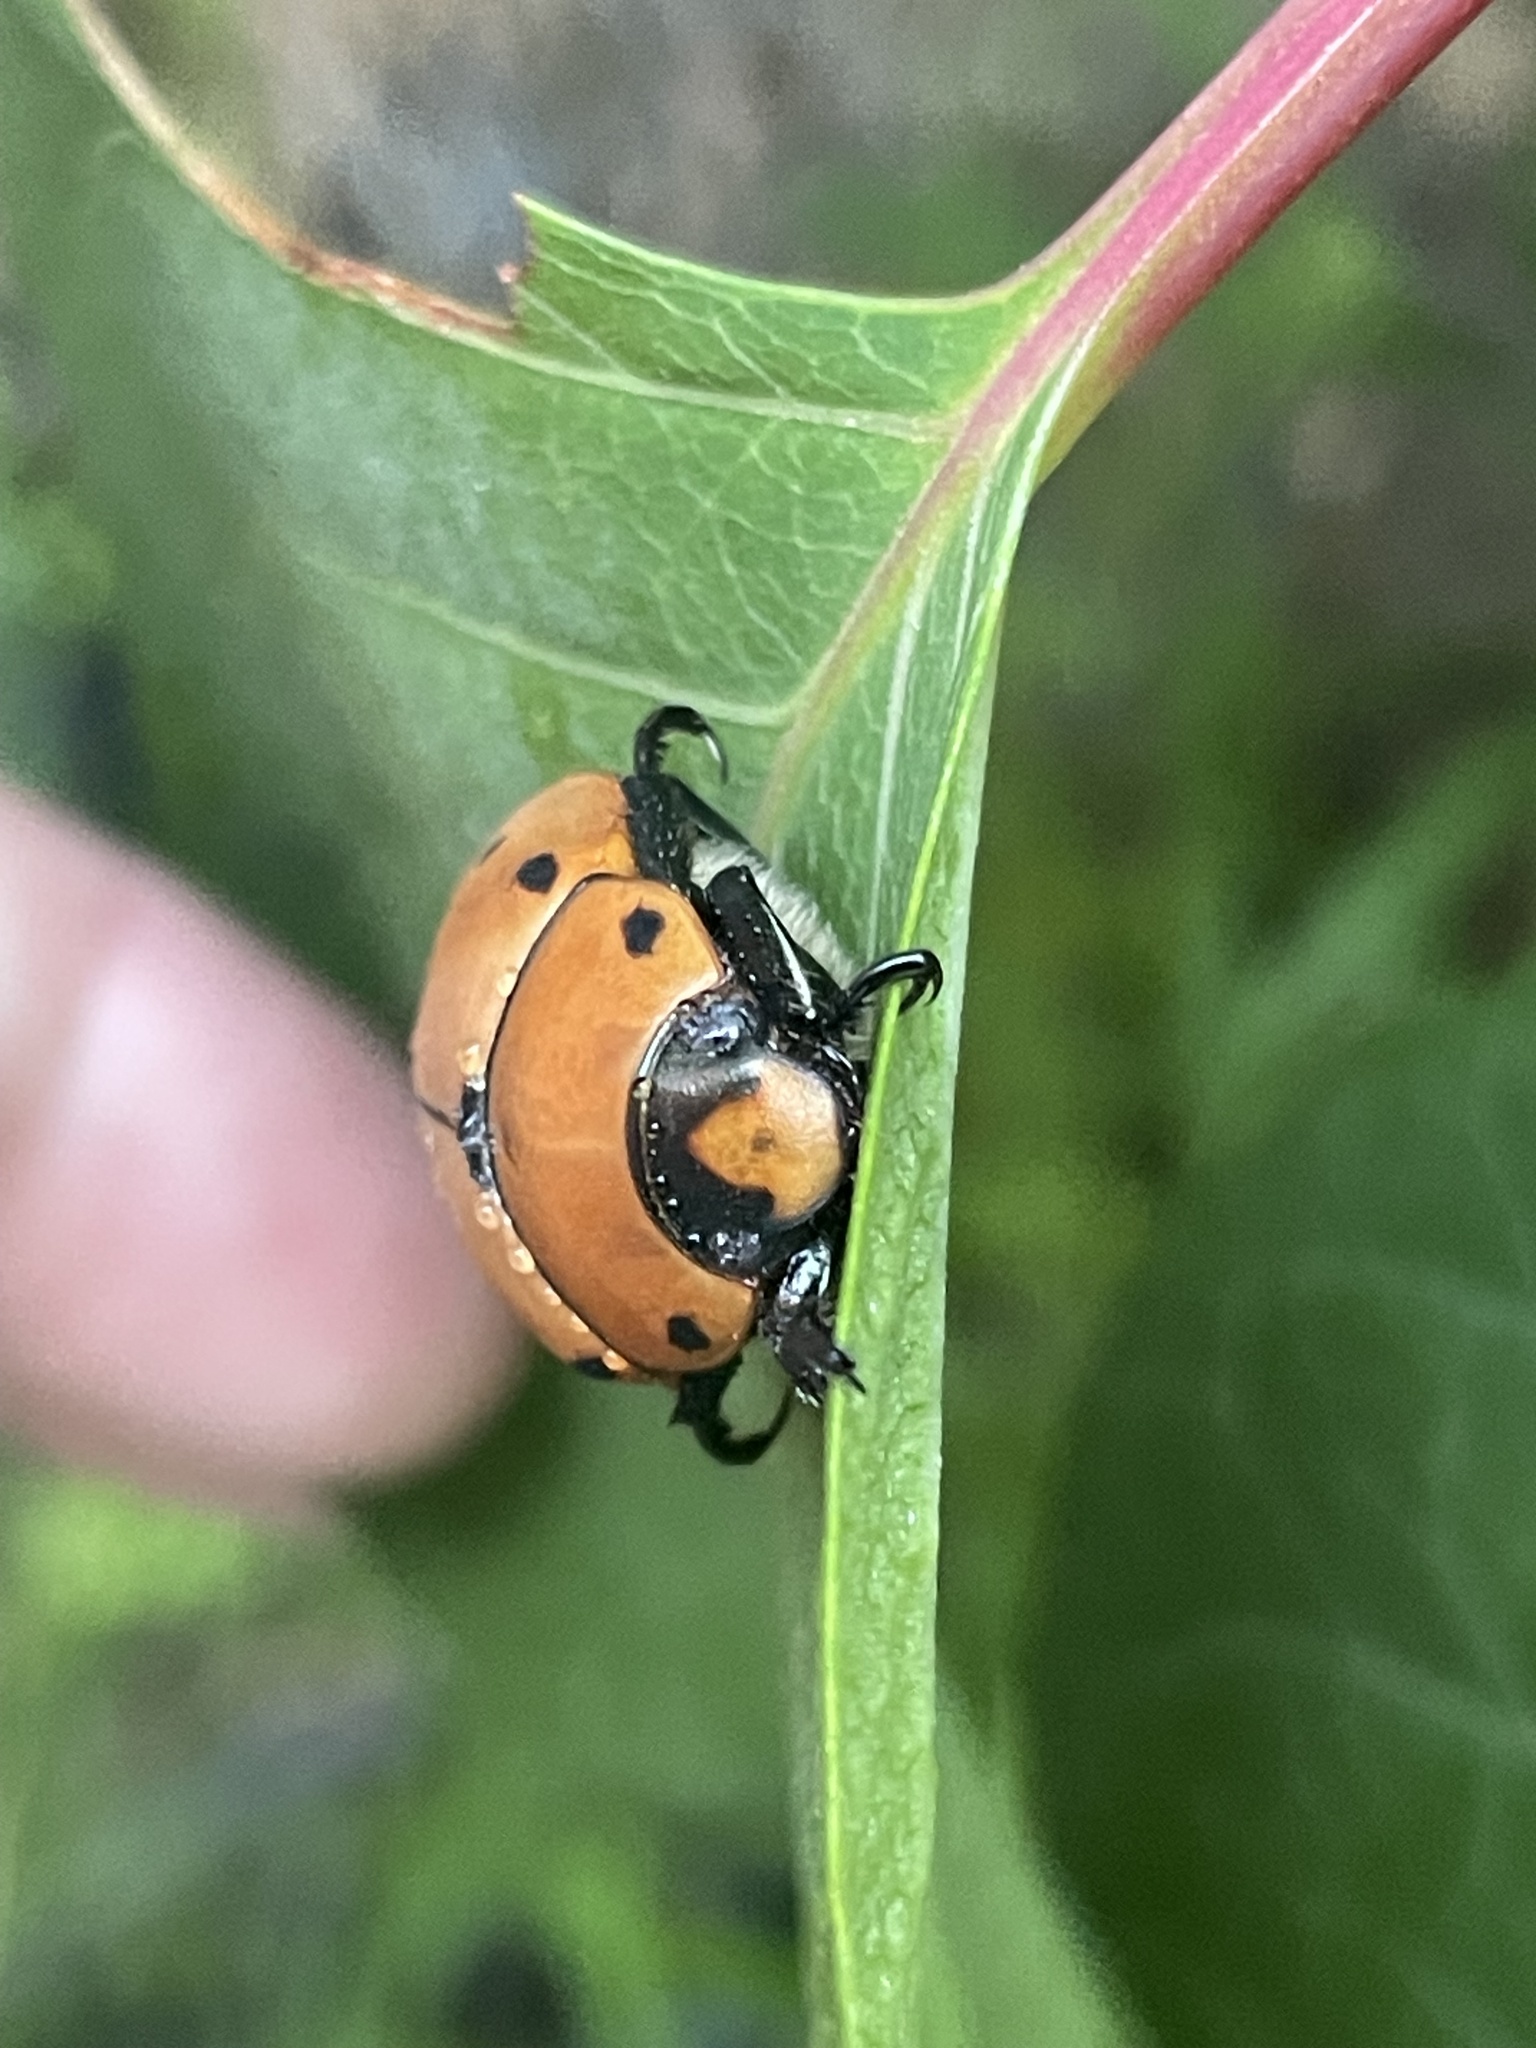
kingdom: Animalia
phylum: Arthropoda
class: Insecta
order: Coleoptera
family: Scarabaeidae
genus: Pelidnota
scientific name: Pelidnota punctata
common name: Grapevine beetle
